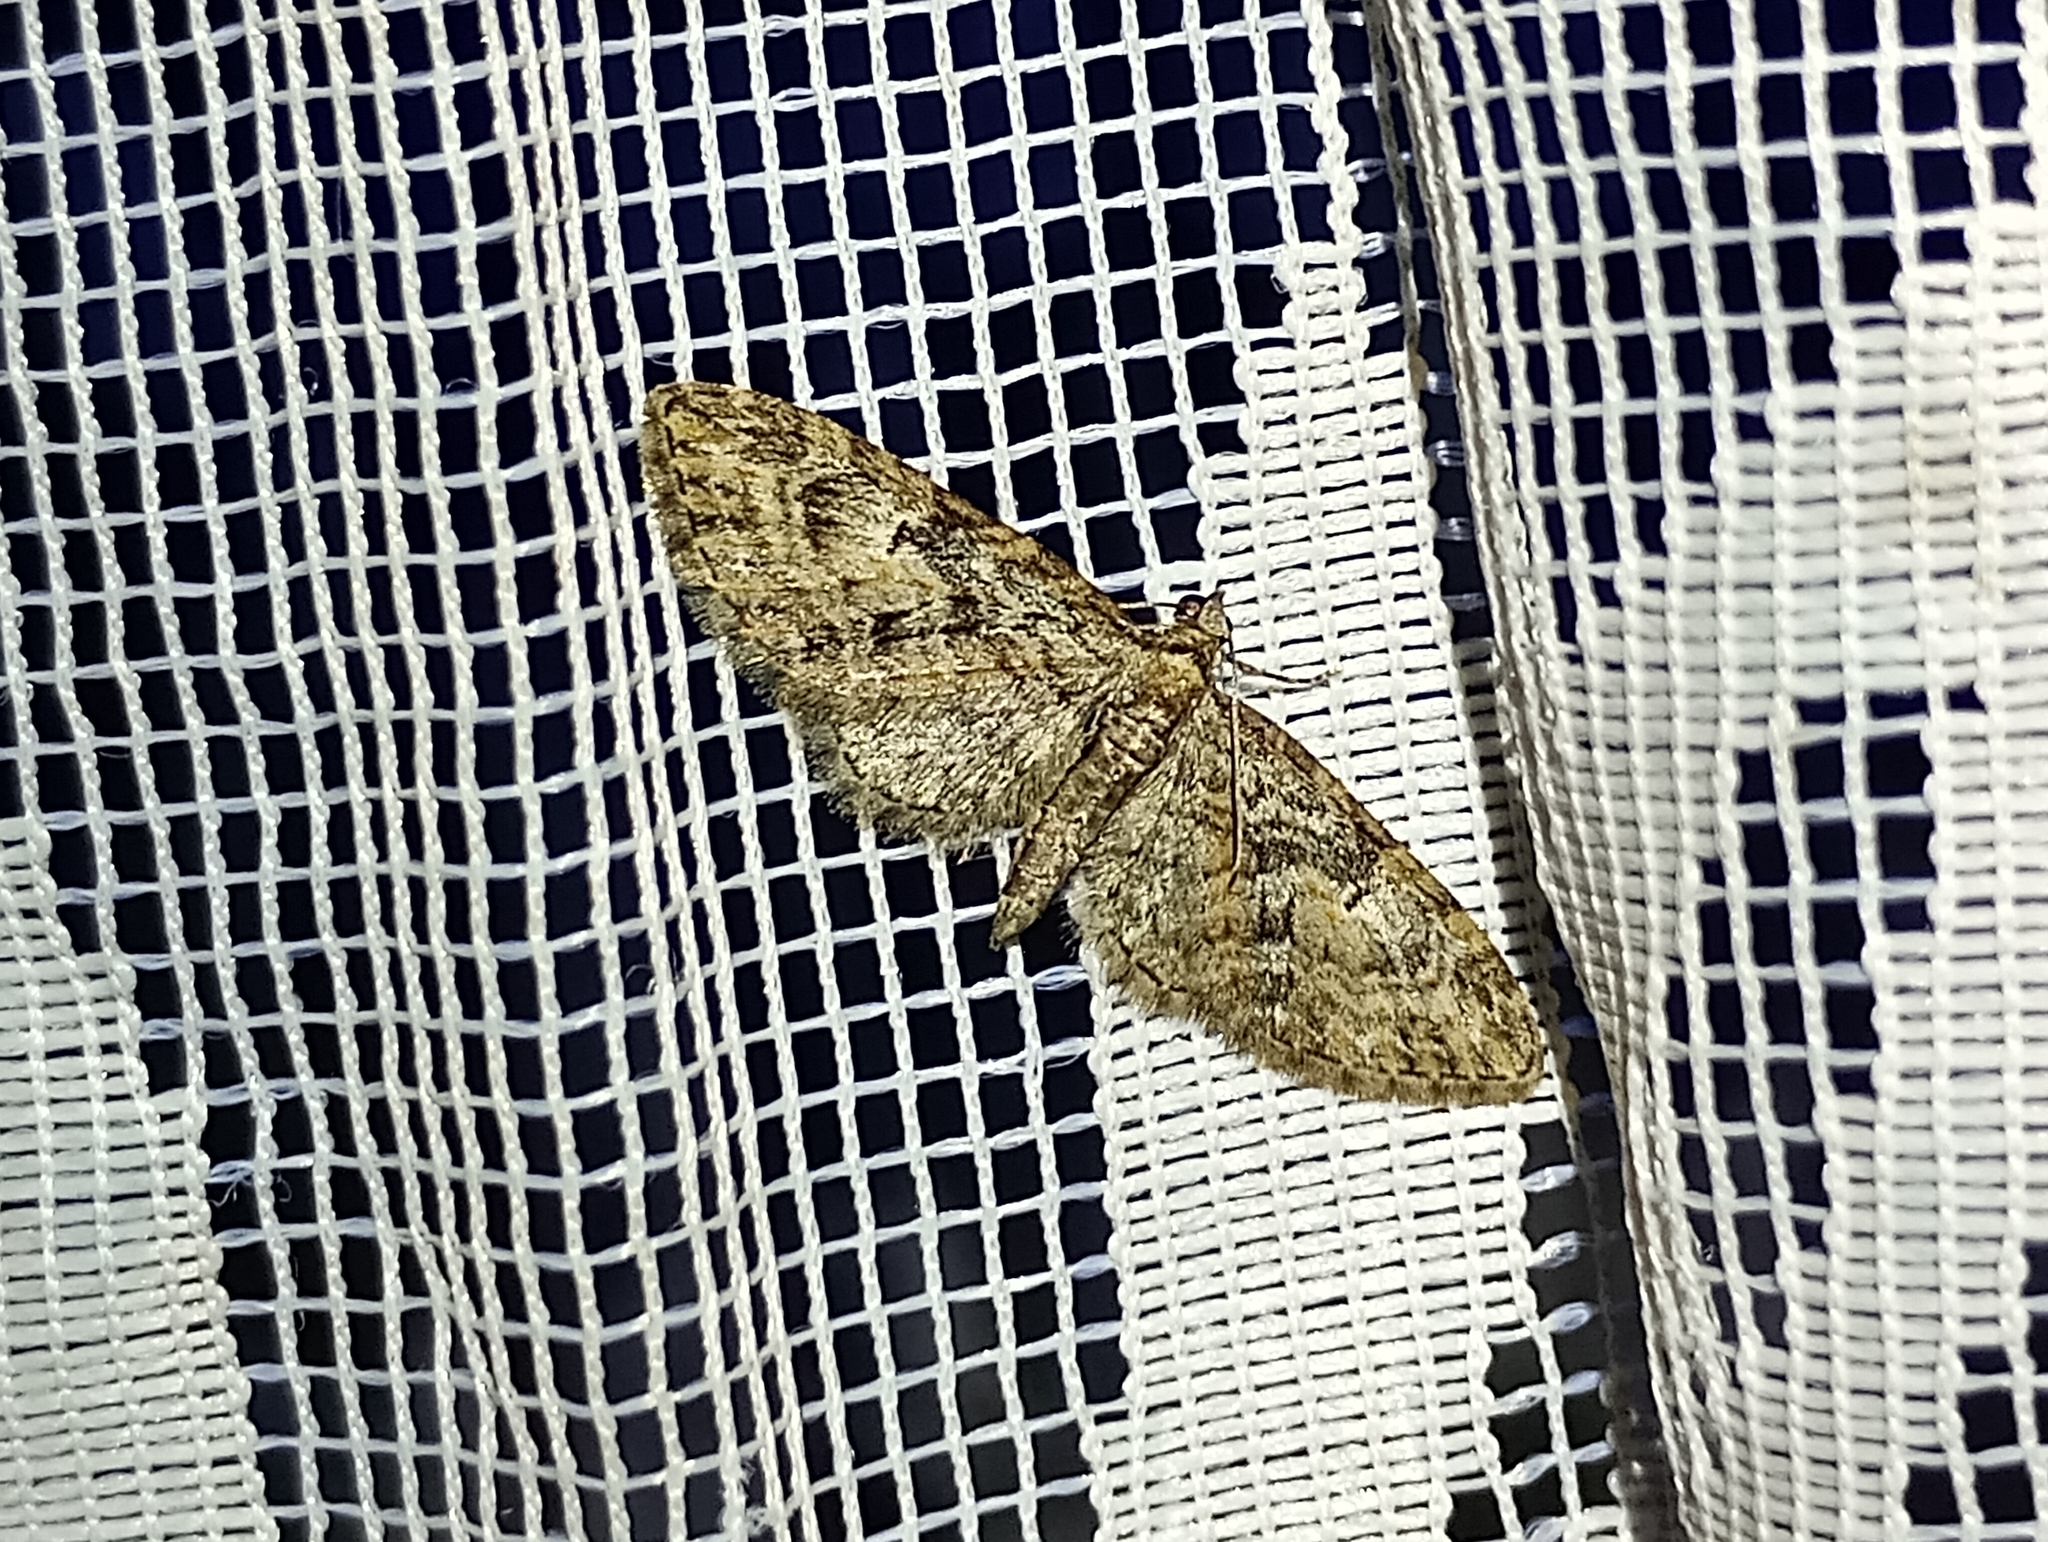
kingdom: Animalia
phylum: Arthropoda
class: Insecta
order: Lepidoptera
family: Geometridae
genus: Eupithecia
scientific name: Eupithecia abbreviata
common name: Brindled pug
